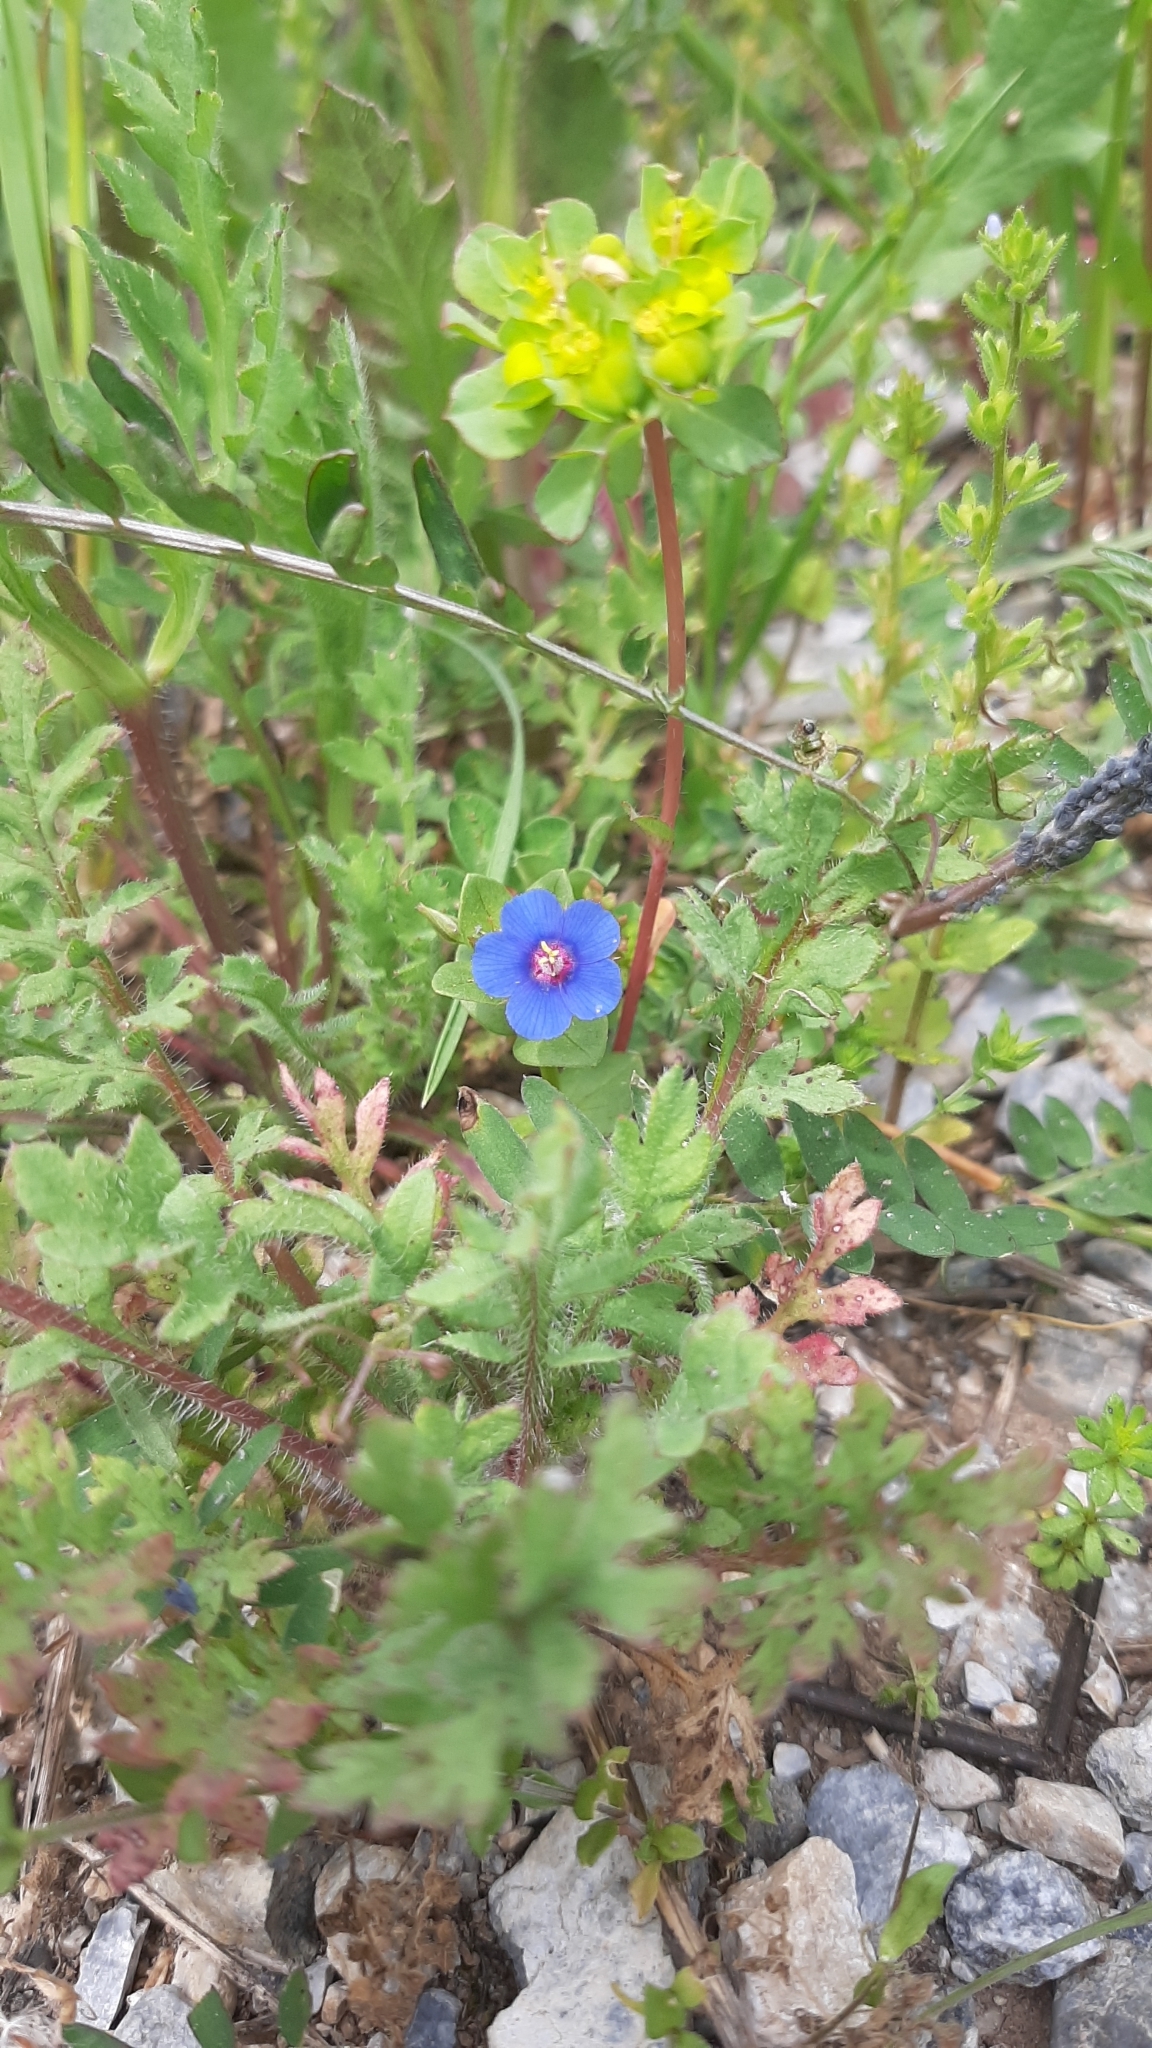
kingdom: Plantae
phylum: Tracheophyta
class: Magnoliopsida
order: Ericales
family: Primulaceae
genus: Lysimachia
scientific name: Lysimachia foemina
